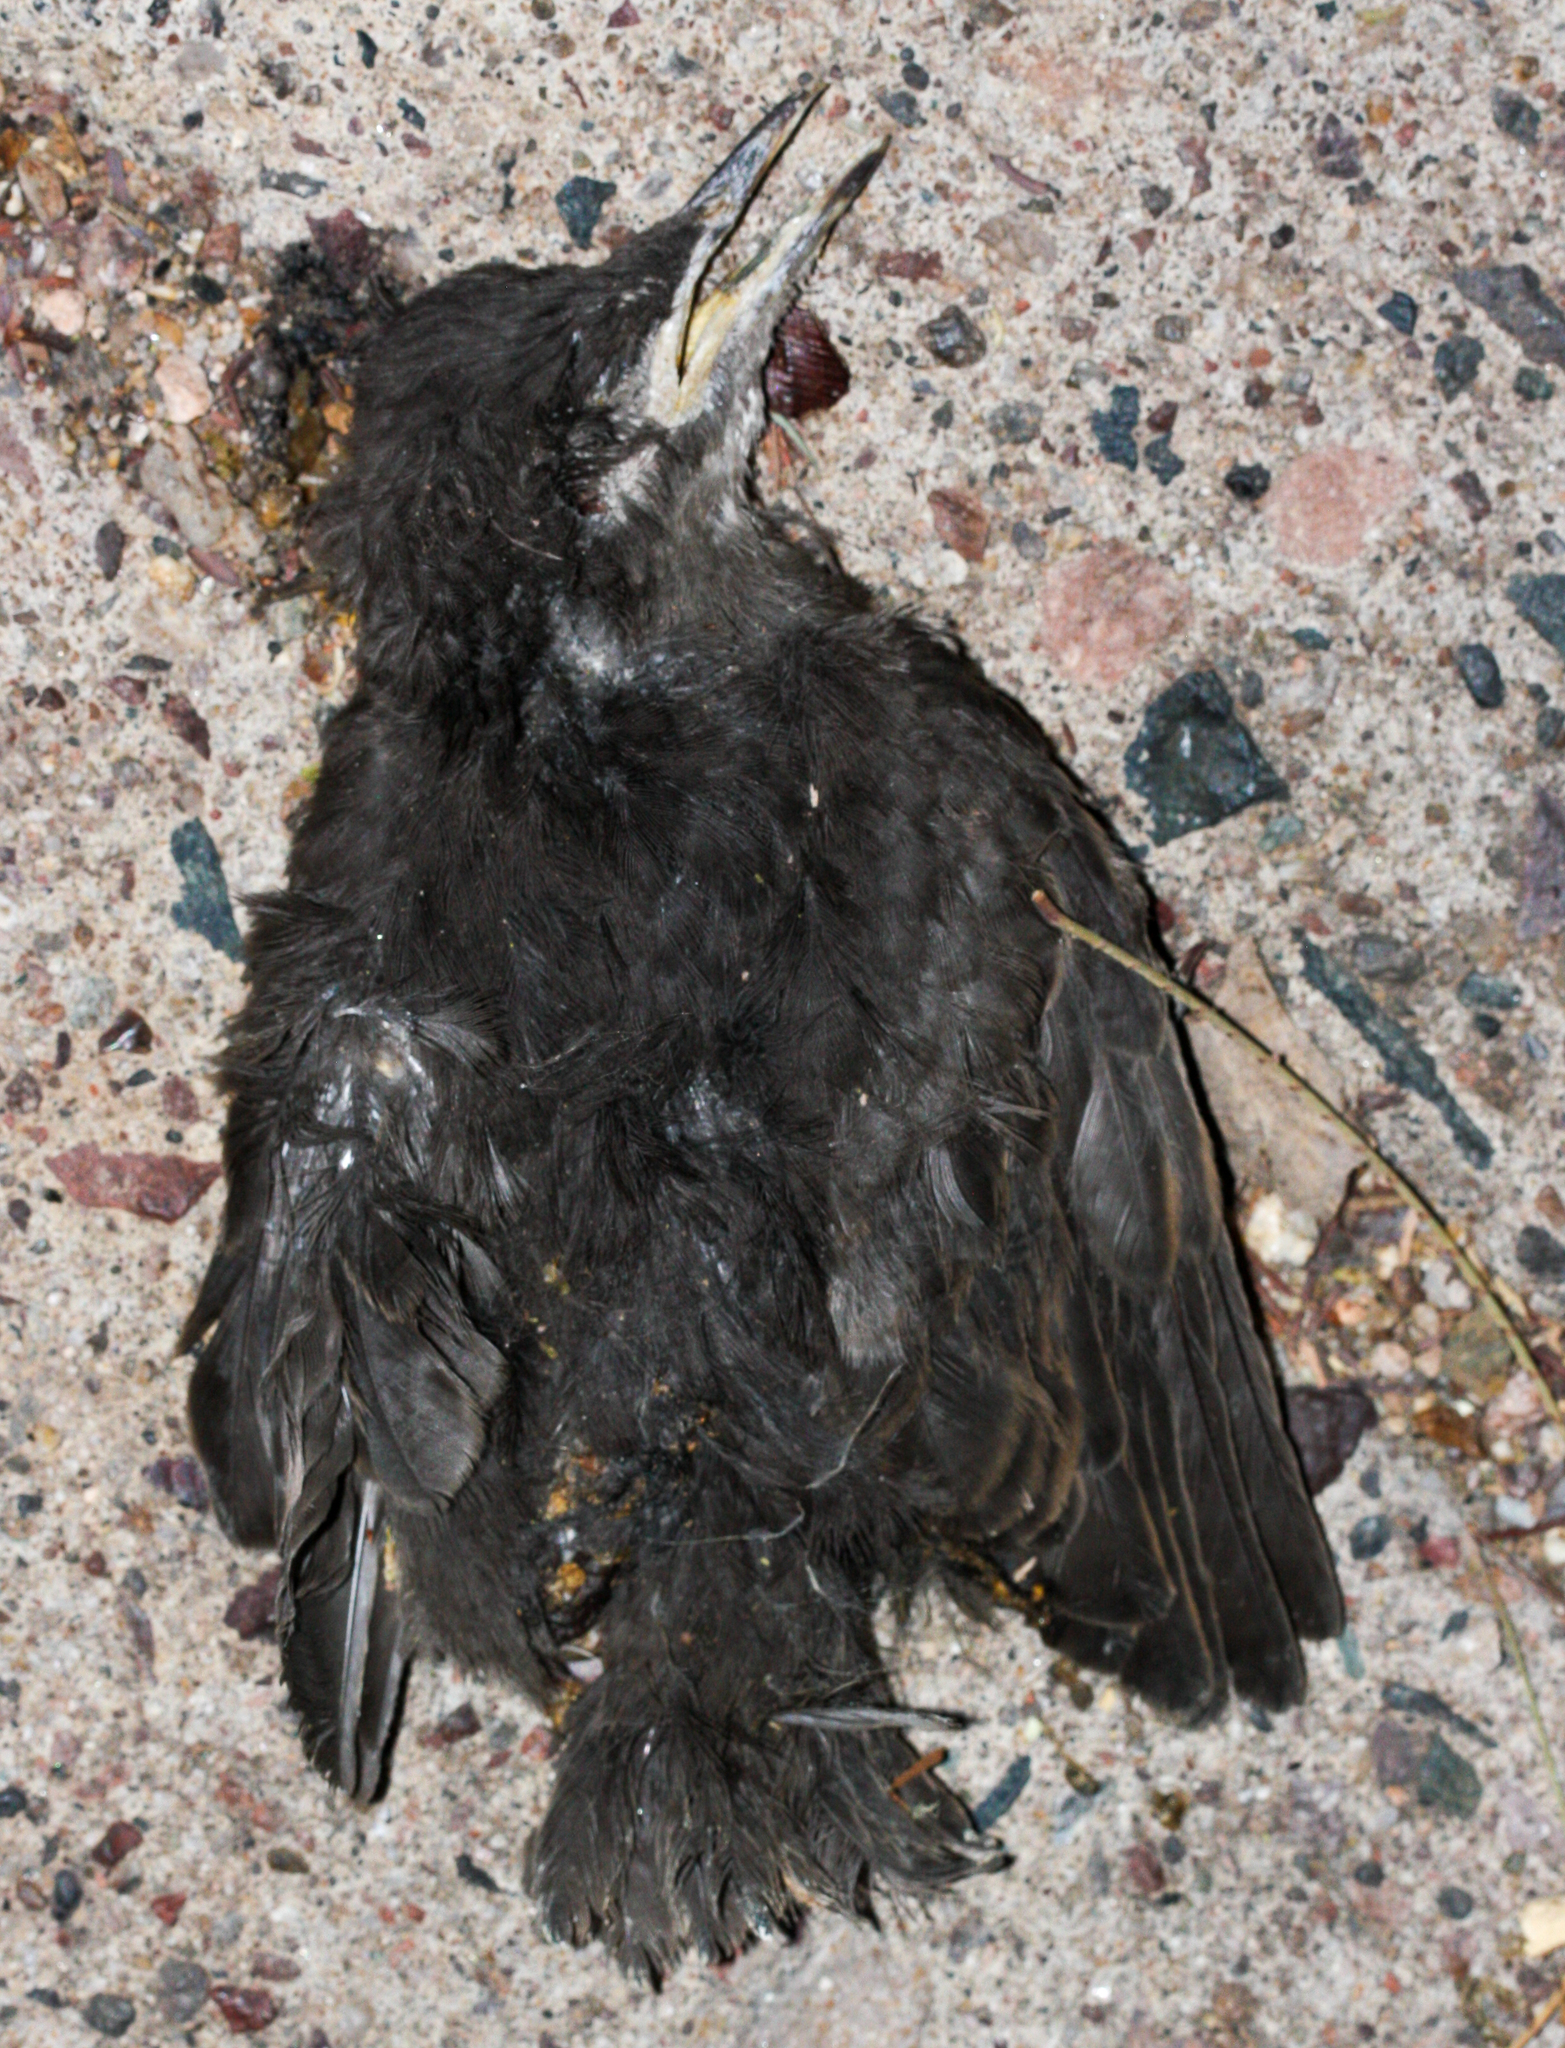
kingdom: Animalia
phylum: Chordata
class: Aves
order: Passeriformes
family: Sturnidae
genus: Sturnus
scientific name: Sturnus vulgaris
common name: Common starling
